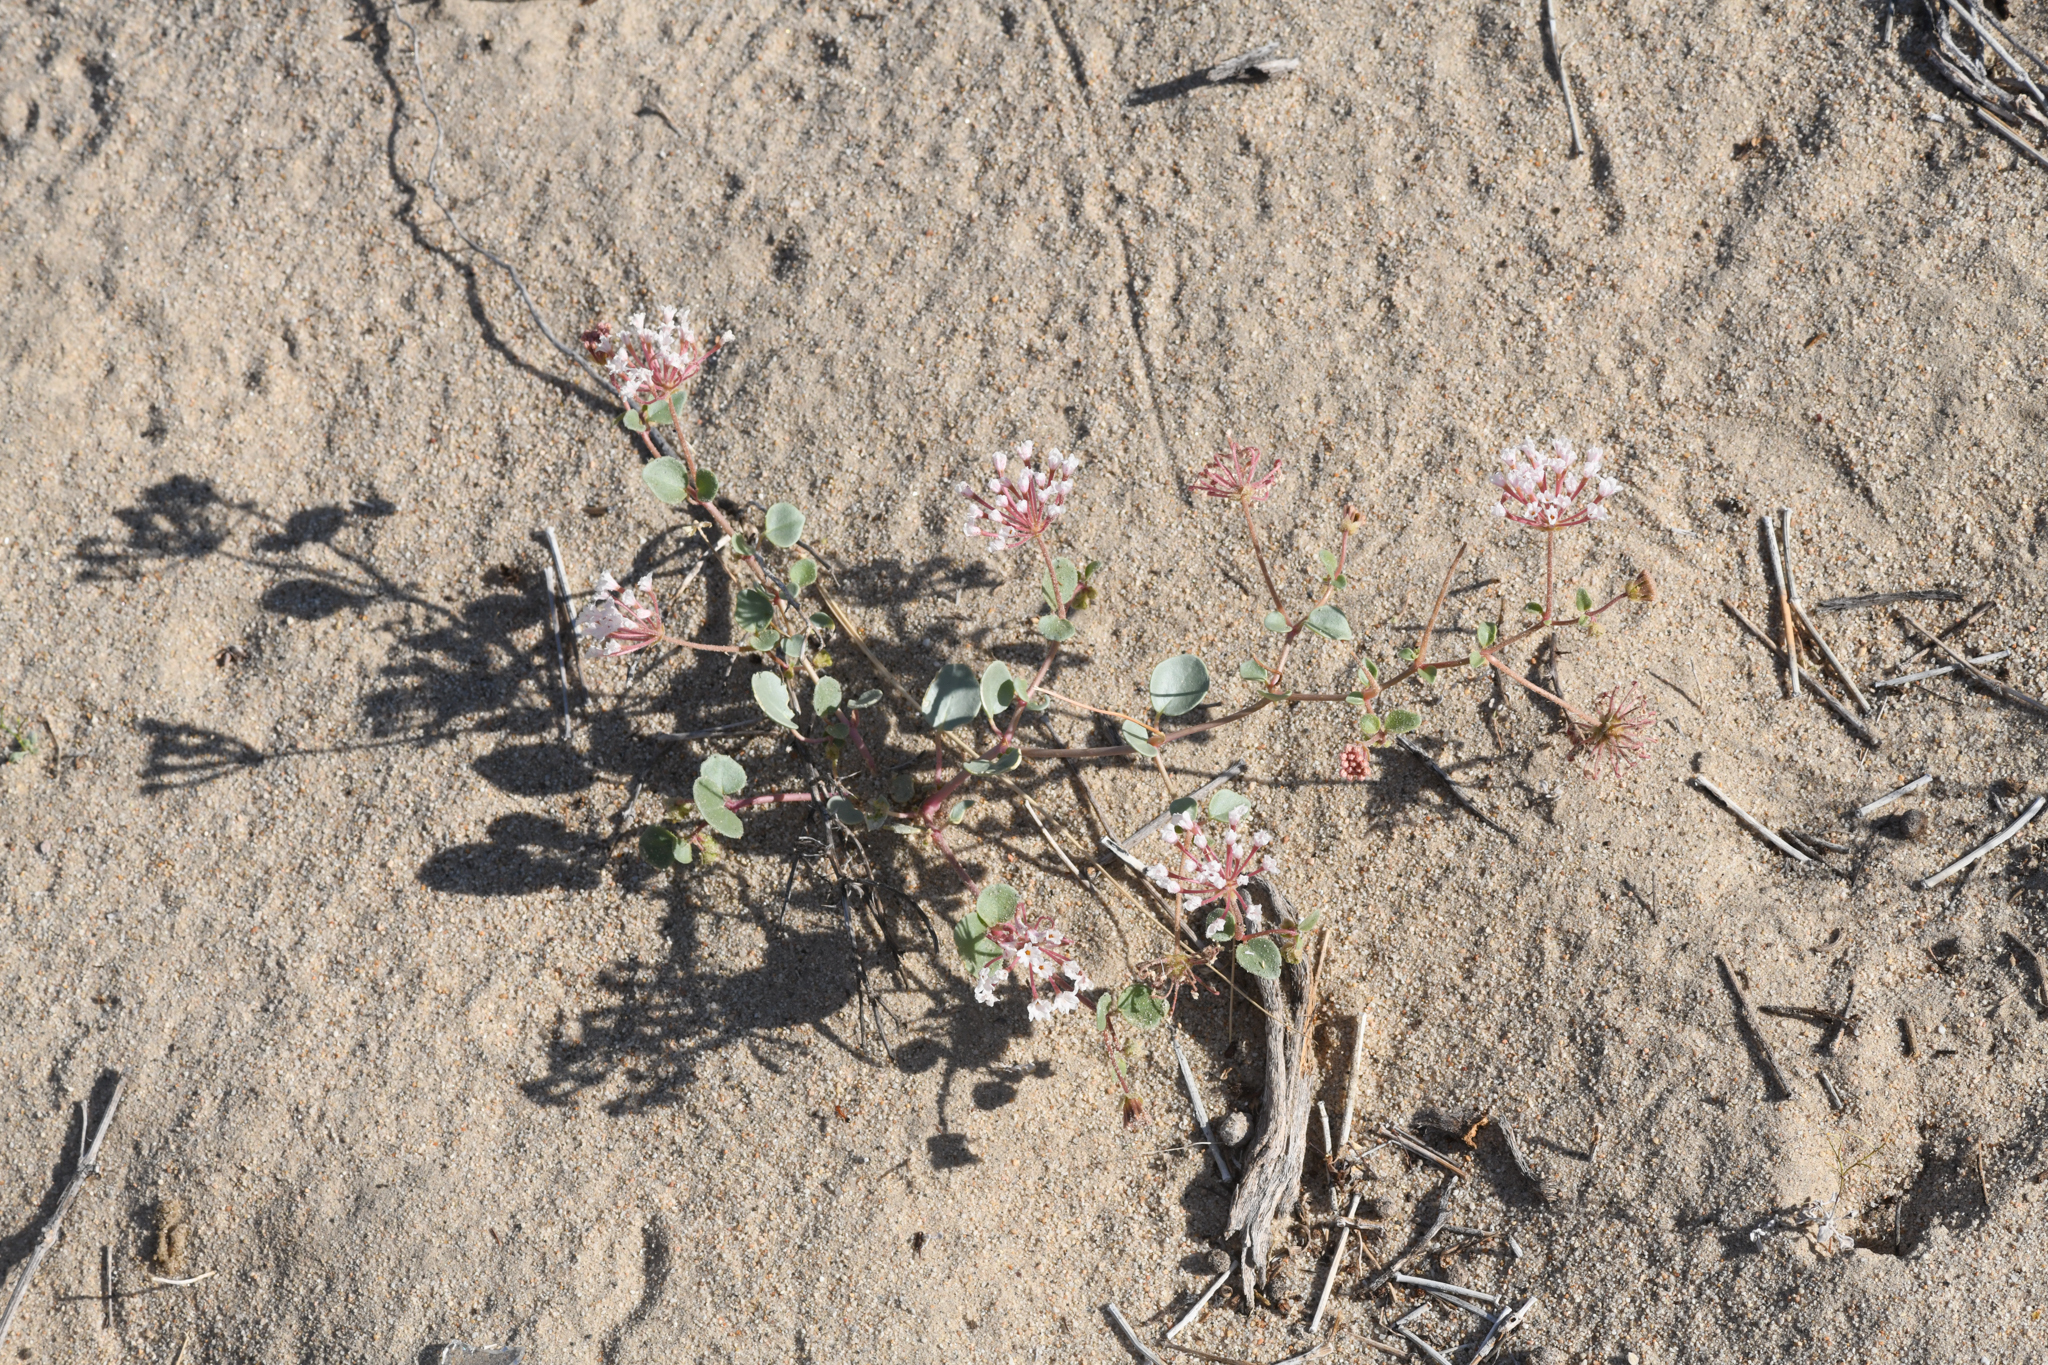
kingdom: Plantae
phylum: Tracheophyta
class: Magnoliopsida
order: Caryophyllales
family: Nyctaginaceae
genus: Abronia
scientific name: Abronia turbinata
